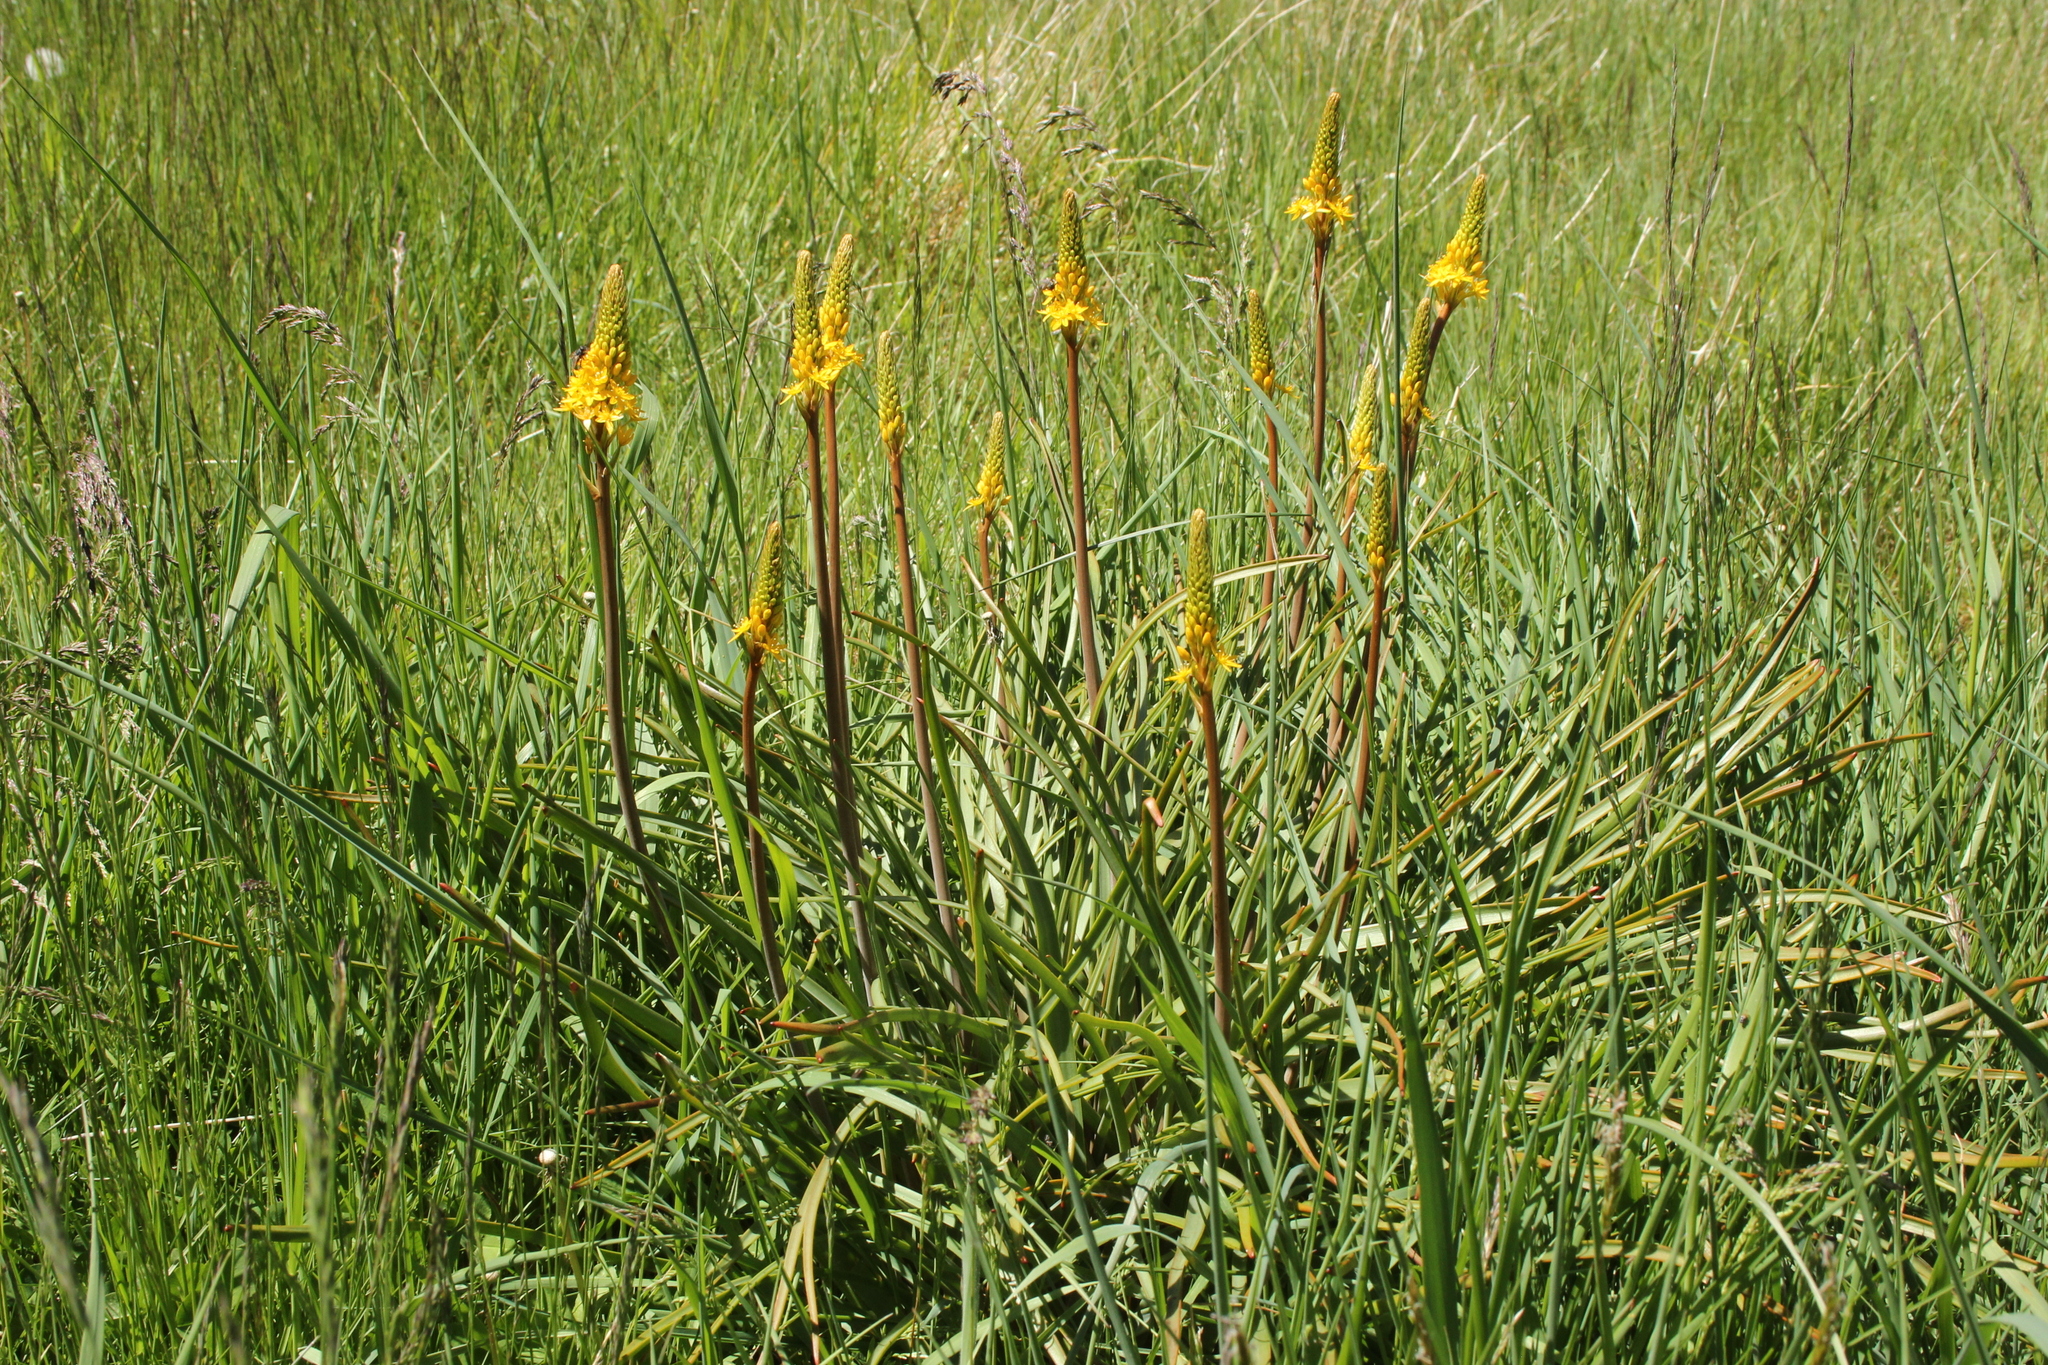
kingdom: Plantae
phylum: Tracheophyta
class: Liliopsida
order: Asparagales
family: Asphodelaceae
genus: Bulbinella
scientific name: Bulbinella angustifolia
